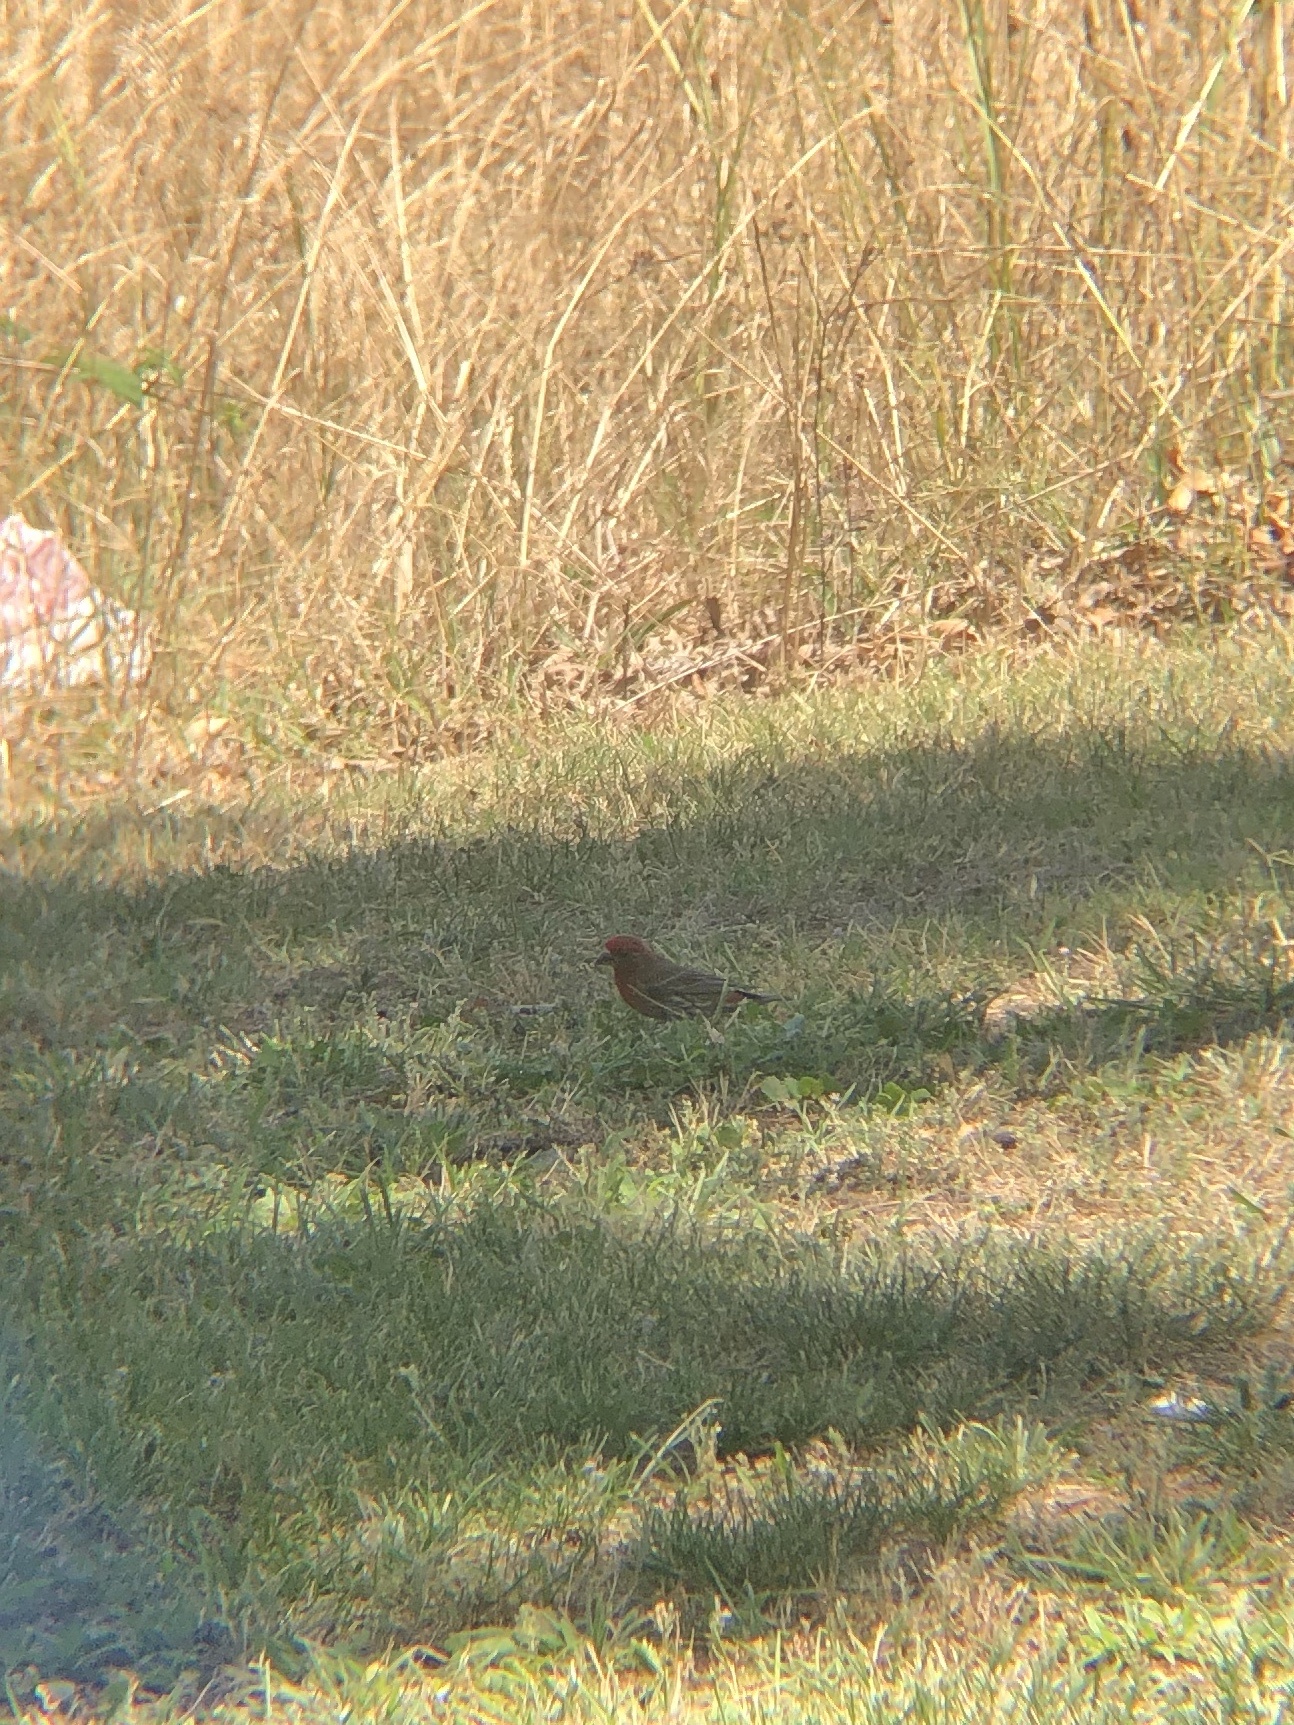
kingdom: Animalia
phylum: Chordata
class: Aves
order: Passeriformes
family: Fringillidae
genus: Haemorhous
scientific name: Haemorhous mexicanus
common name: House finch
